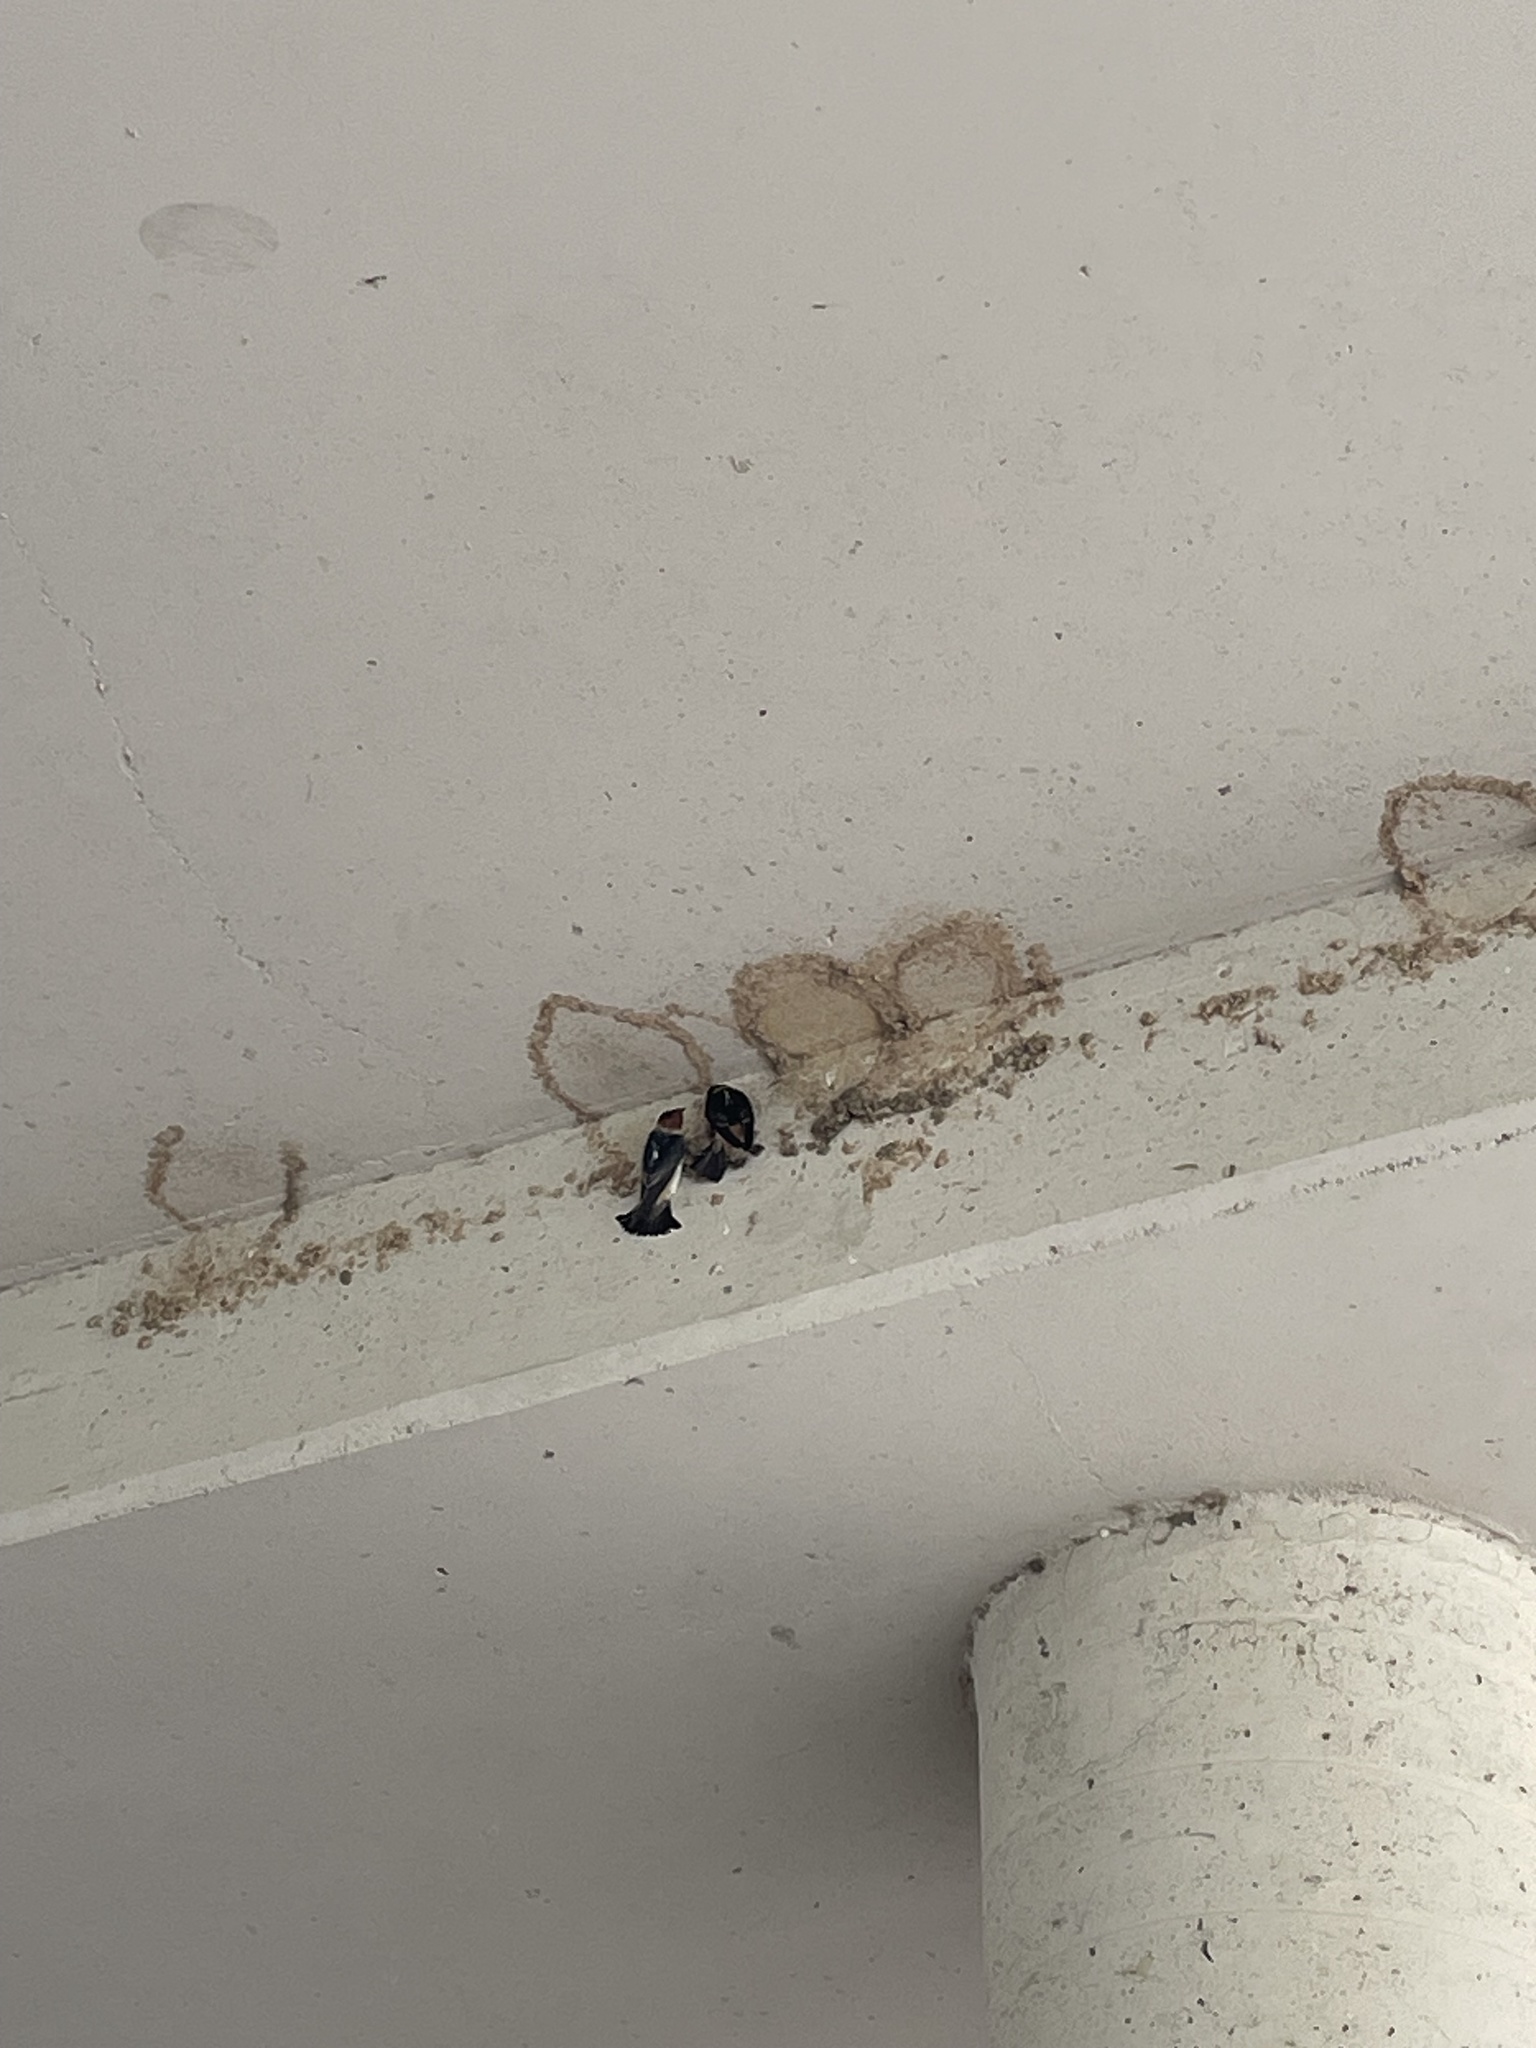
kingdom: Animalia
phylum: Chordata
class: Aves
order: Passeriformes
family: Hirundinidae
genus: Petrochelidon
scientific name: Petrochelidon pyrrhonota
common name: American cliff swallow
